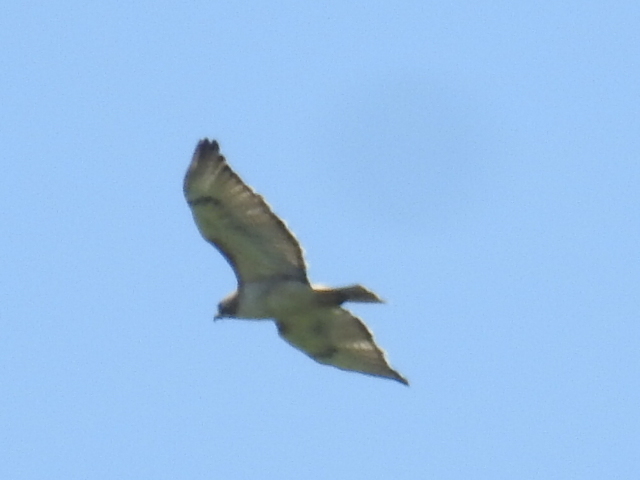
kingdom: Animalia
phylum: Chordata
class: Aves
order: Accipitriformes
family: Accipitridae
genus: Buteo
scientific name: Buteo jamaicensis
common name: Red-tailed hawk
